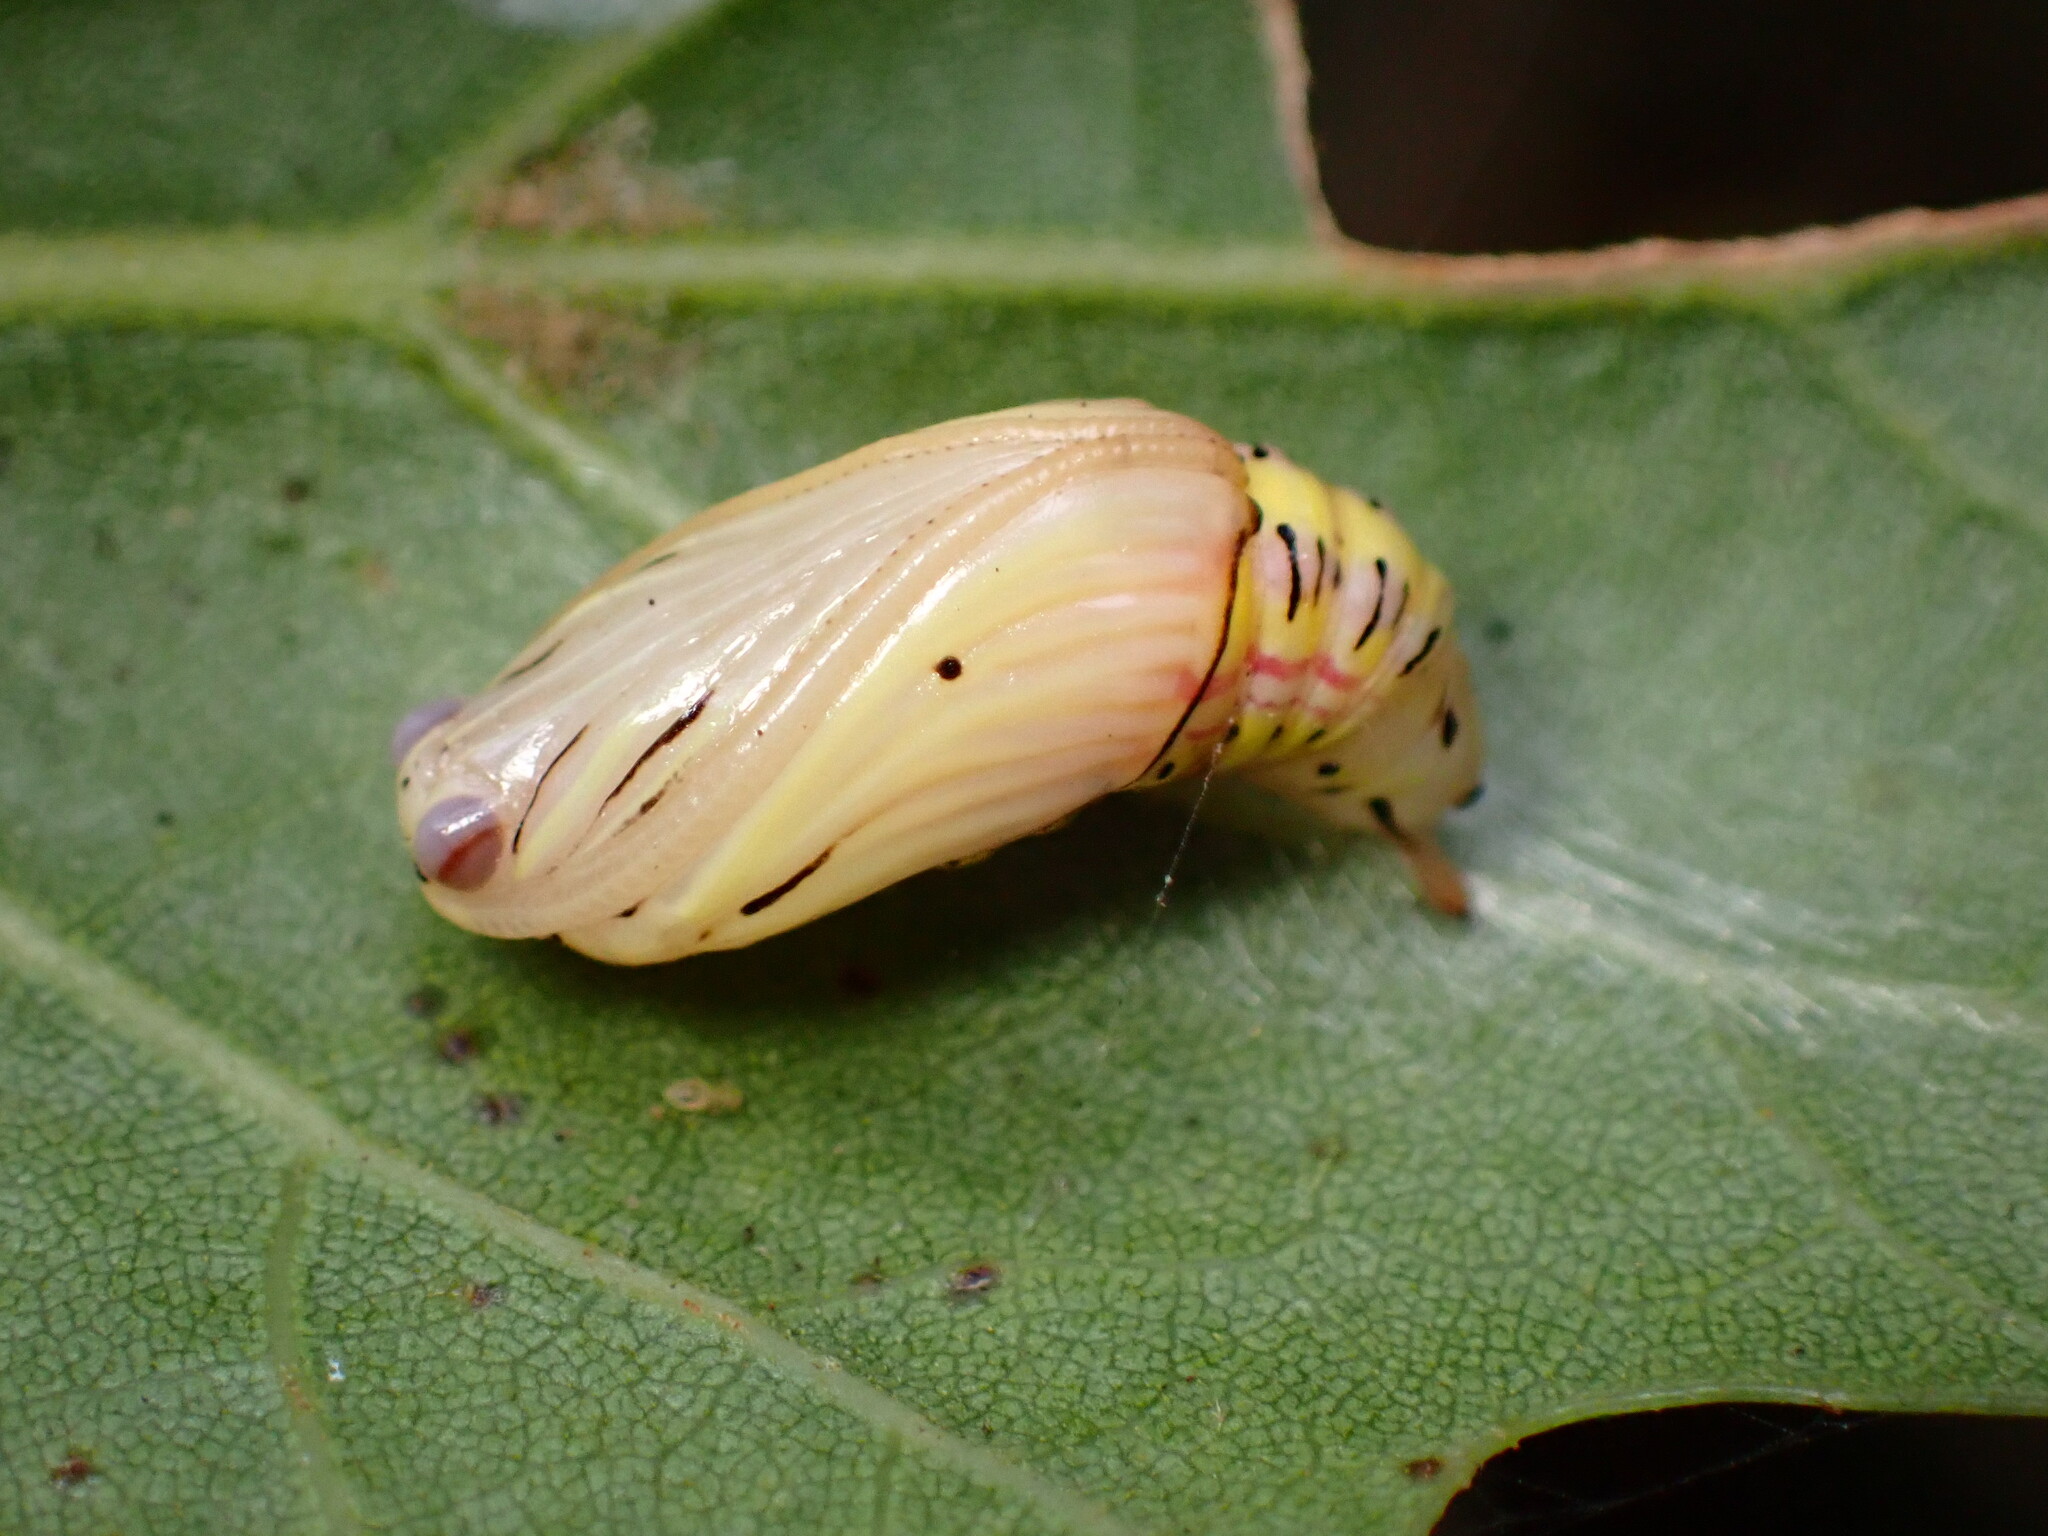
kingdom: Animalia
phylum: Arthropoda
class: Insecta
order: Lepidoptera
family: Notodontidae
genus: Phryganidia
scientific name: Phryganidia californica
